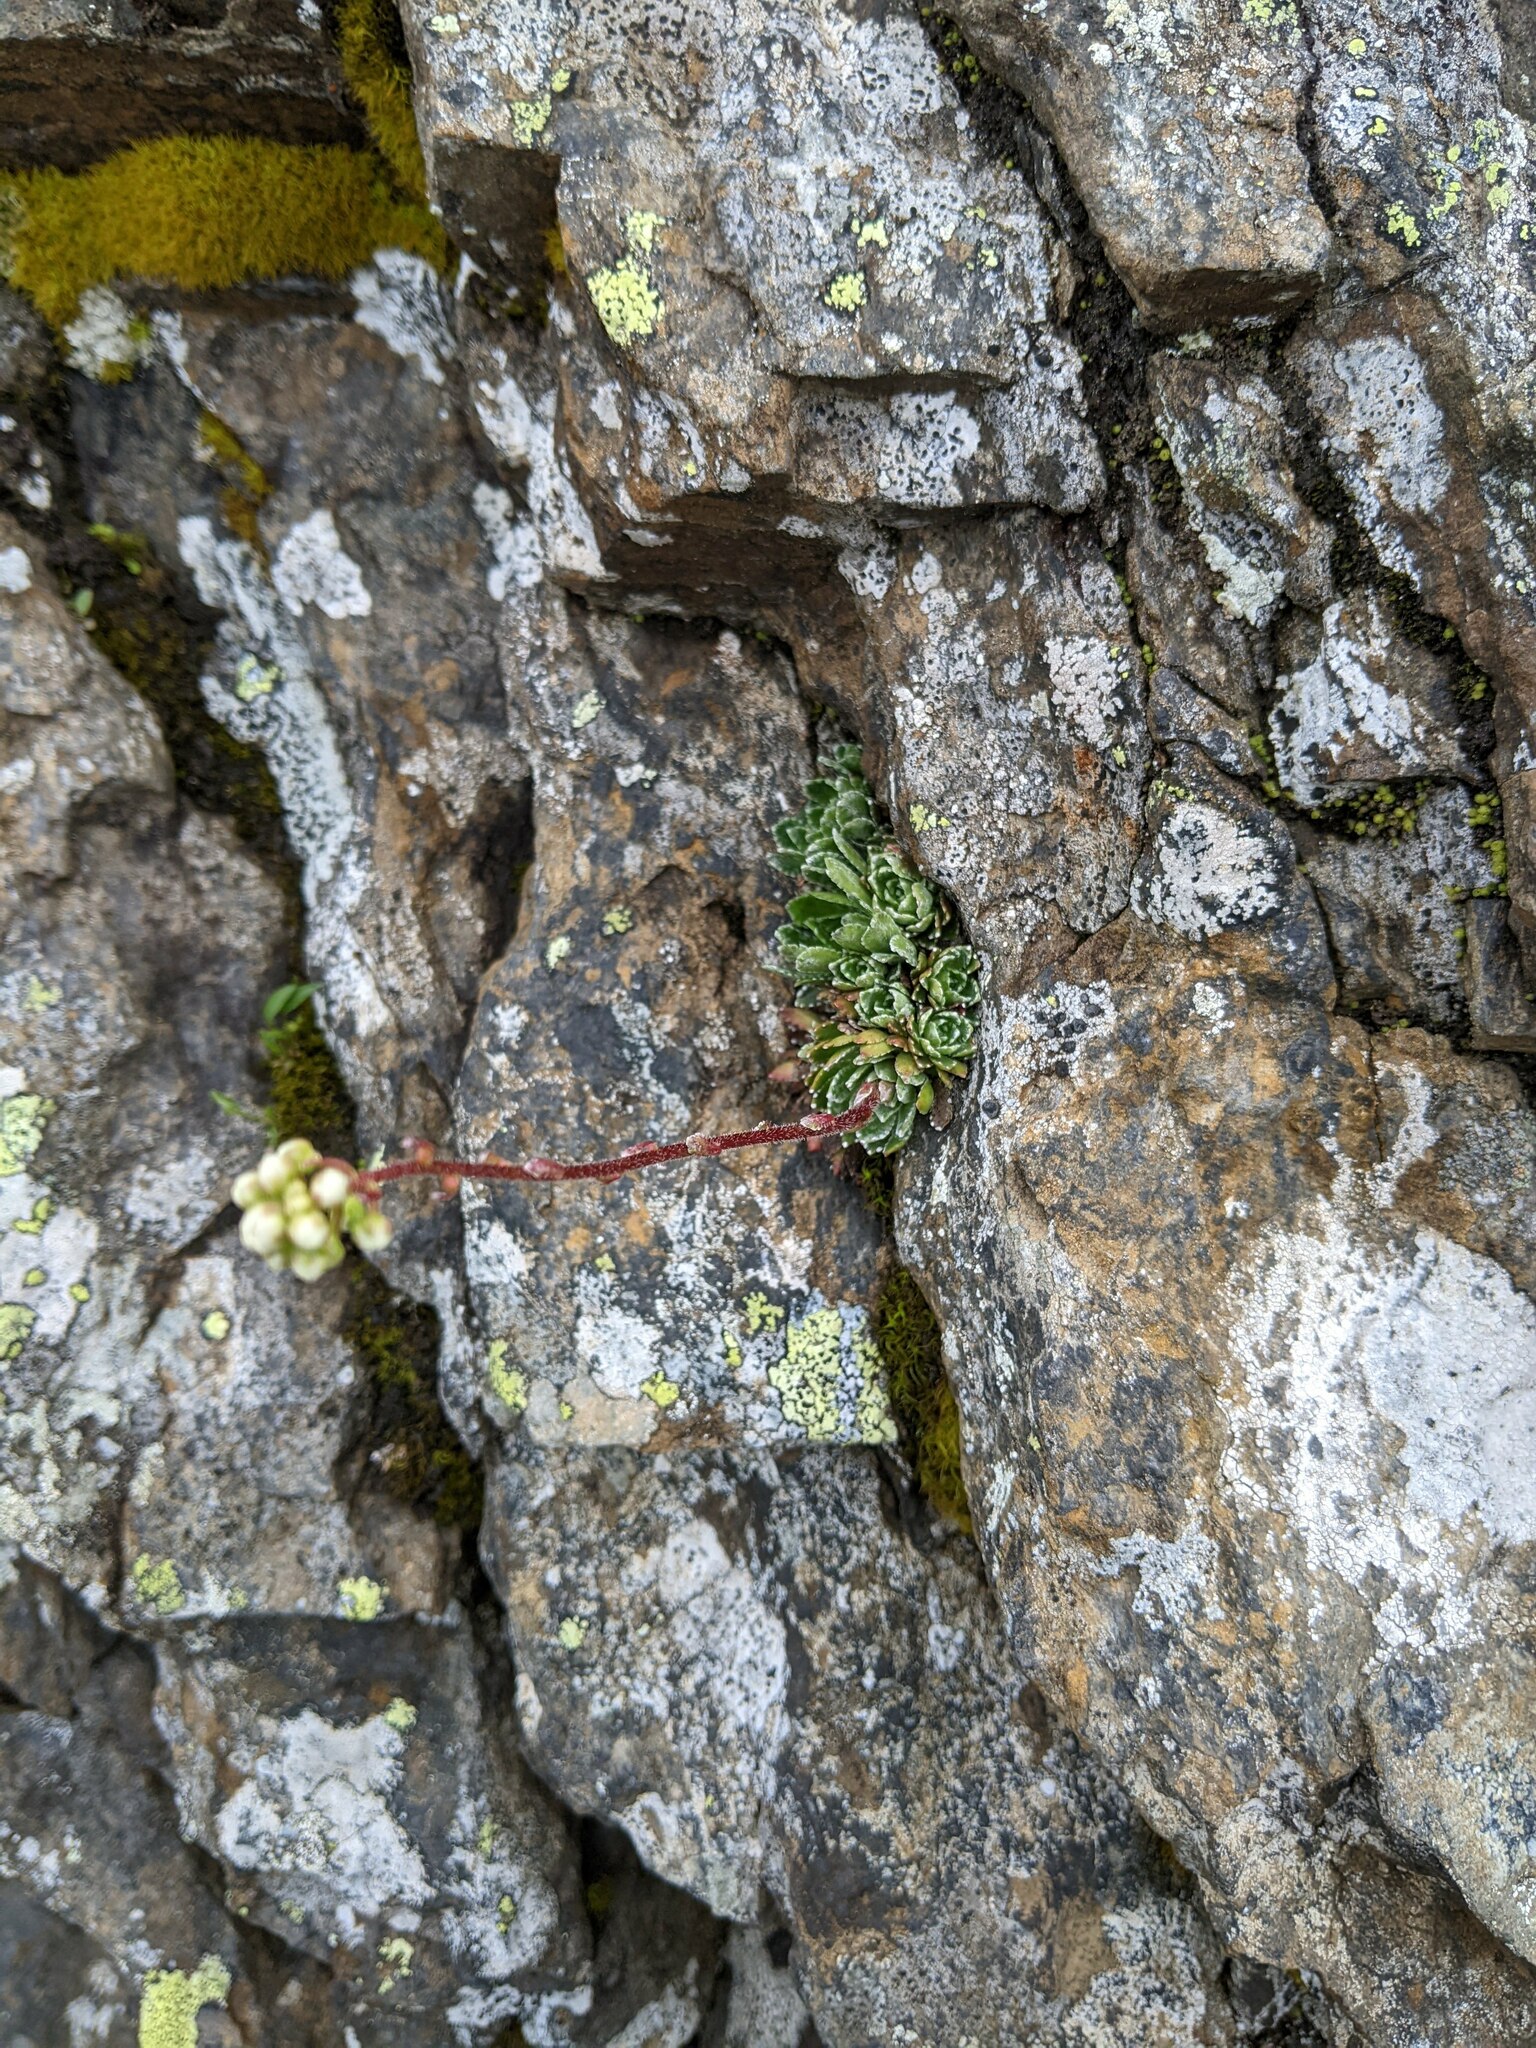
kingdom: Plantae
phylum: Tracheophyta
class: Magnoliopsida
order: Saxifragales
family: Saxifragaceae
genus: Saxifraga
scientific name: Saxifraga paniculata
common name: Livelong saxifrage
